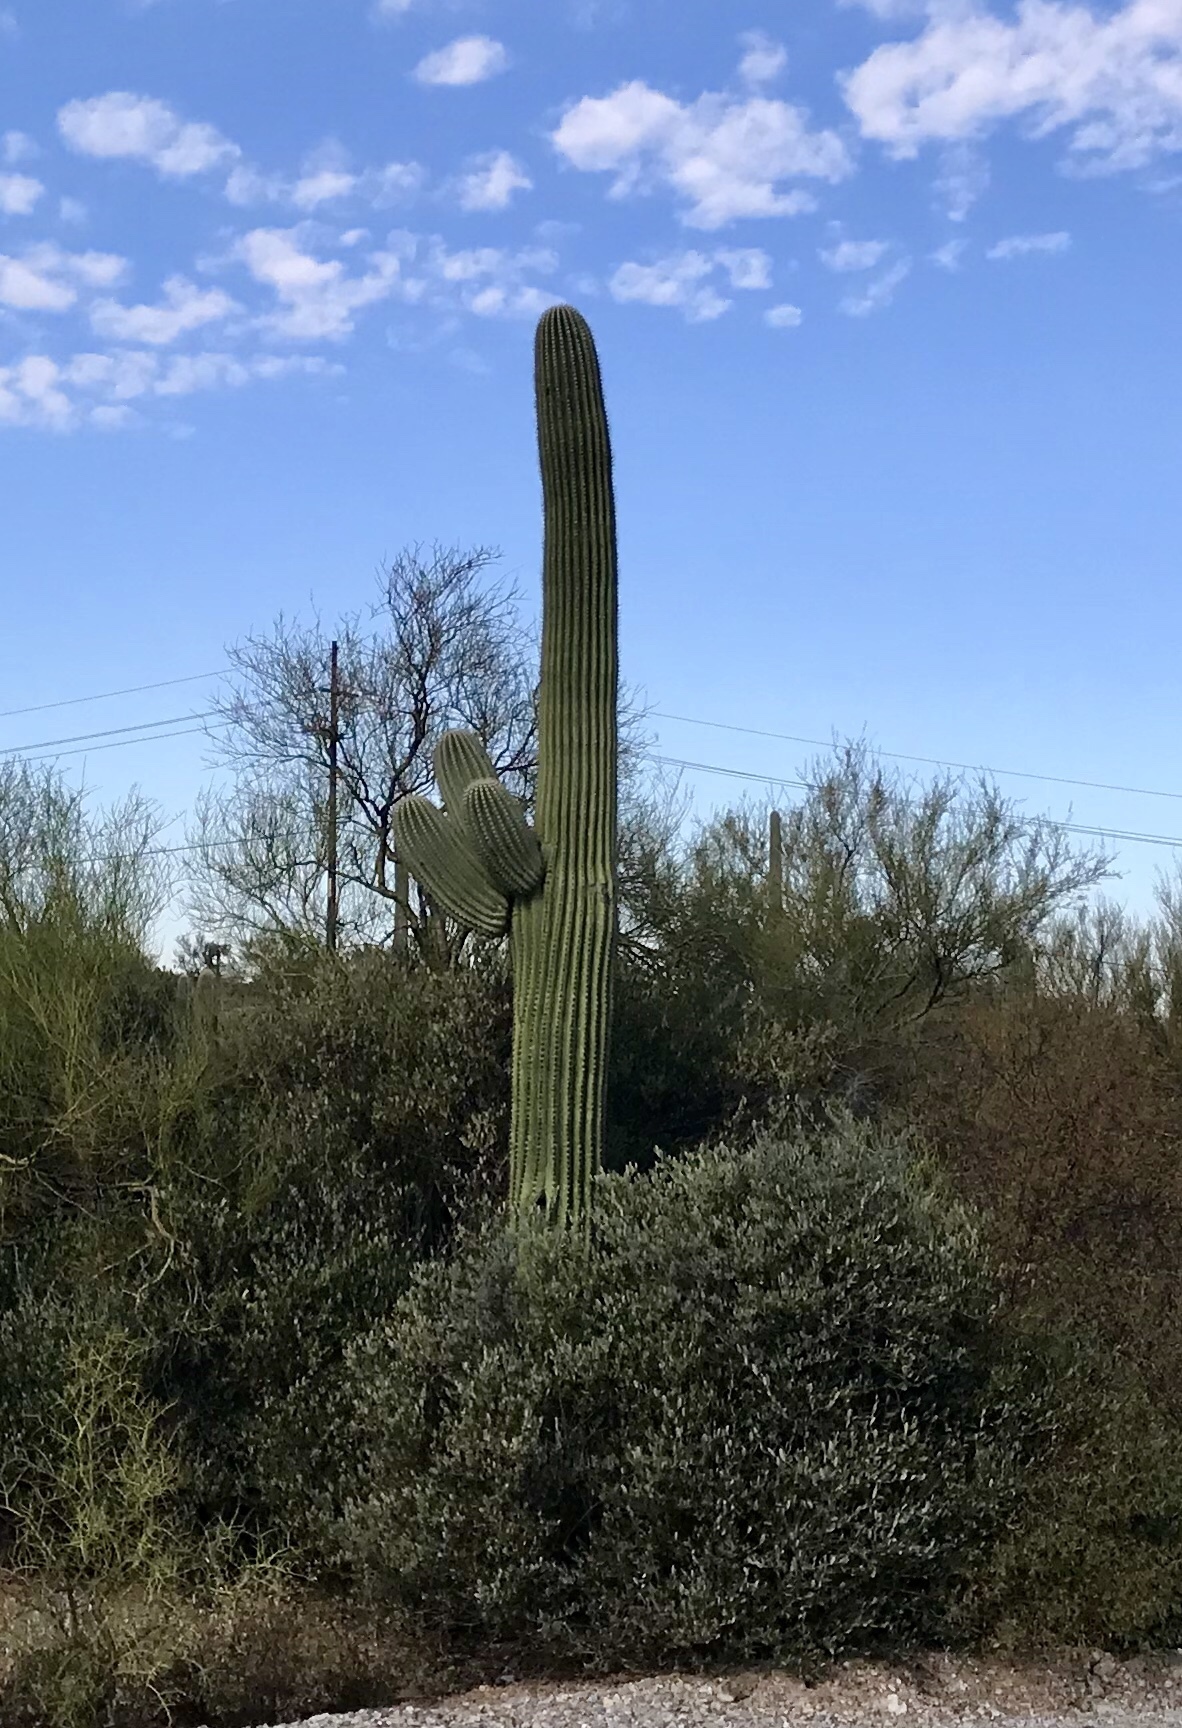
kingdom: Plantae
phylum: Tracheophyta
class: Magnoliopsida
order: Caryophyllales
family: Cactaceae
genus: Carnegiea
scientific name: Carnegiea gigantea
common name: Saguaro
